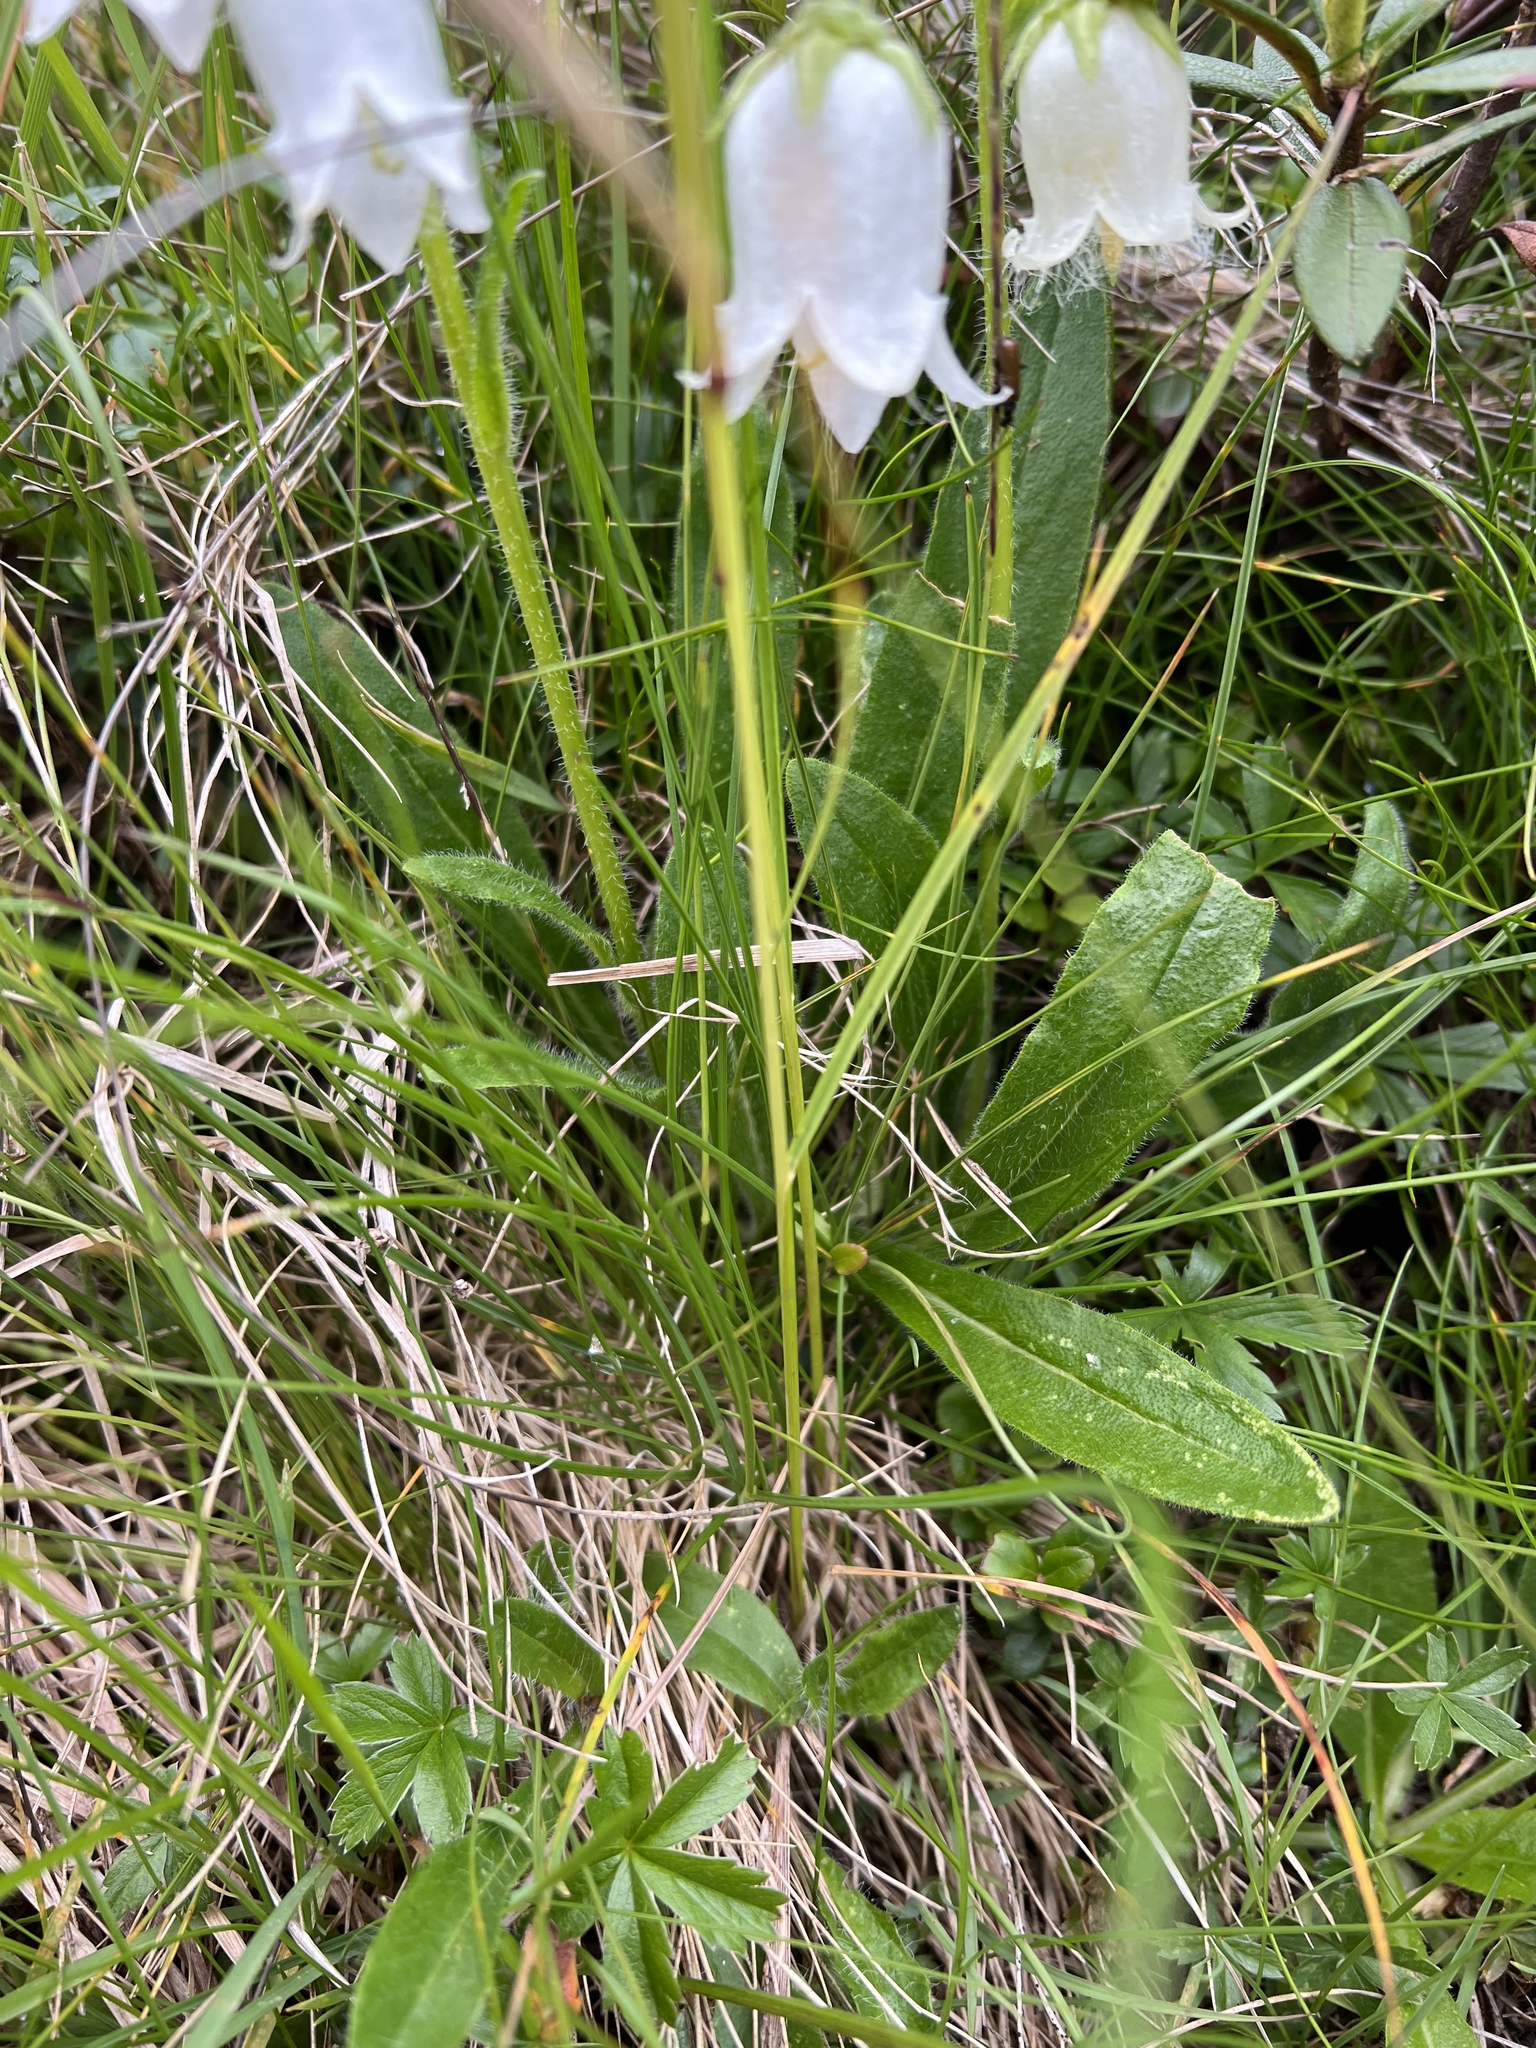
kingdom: Plantae
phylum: Tracheophyta
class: Magnoliopsida
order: Asterales
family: Campanulaceae
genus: Campanula
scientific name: Campanula barbata
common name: Bearded bellflower
